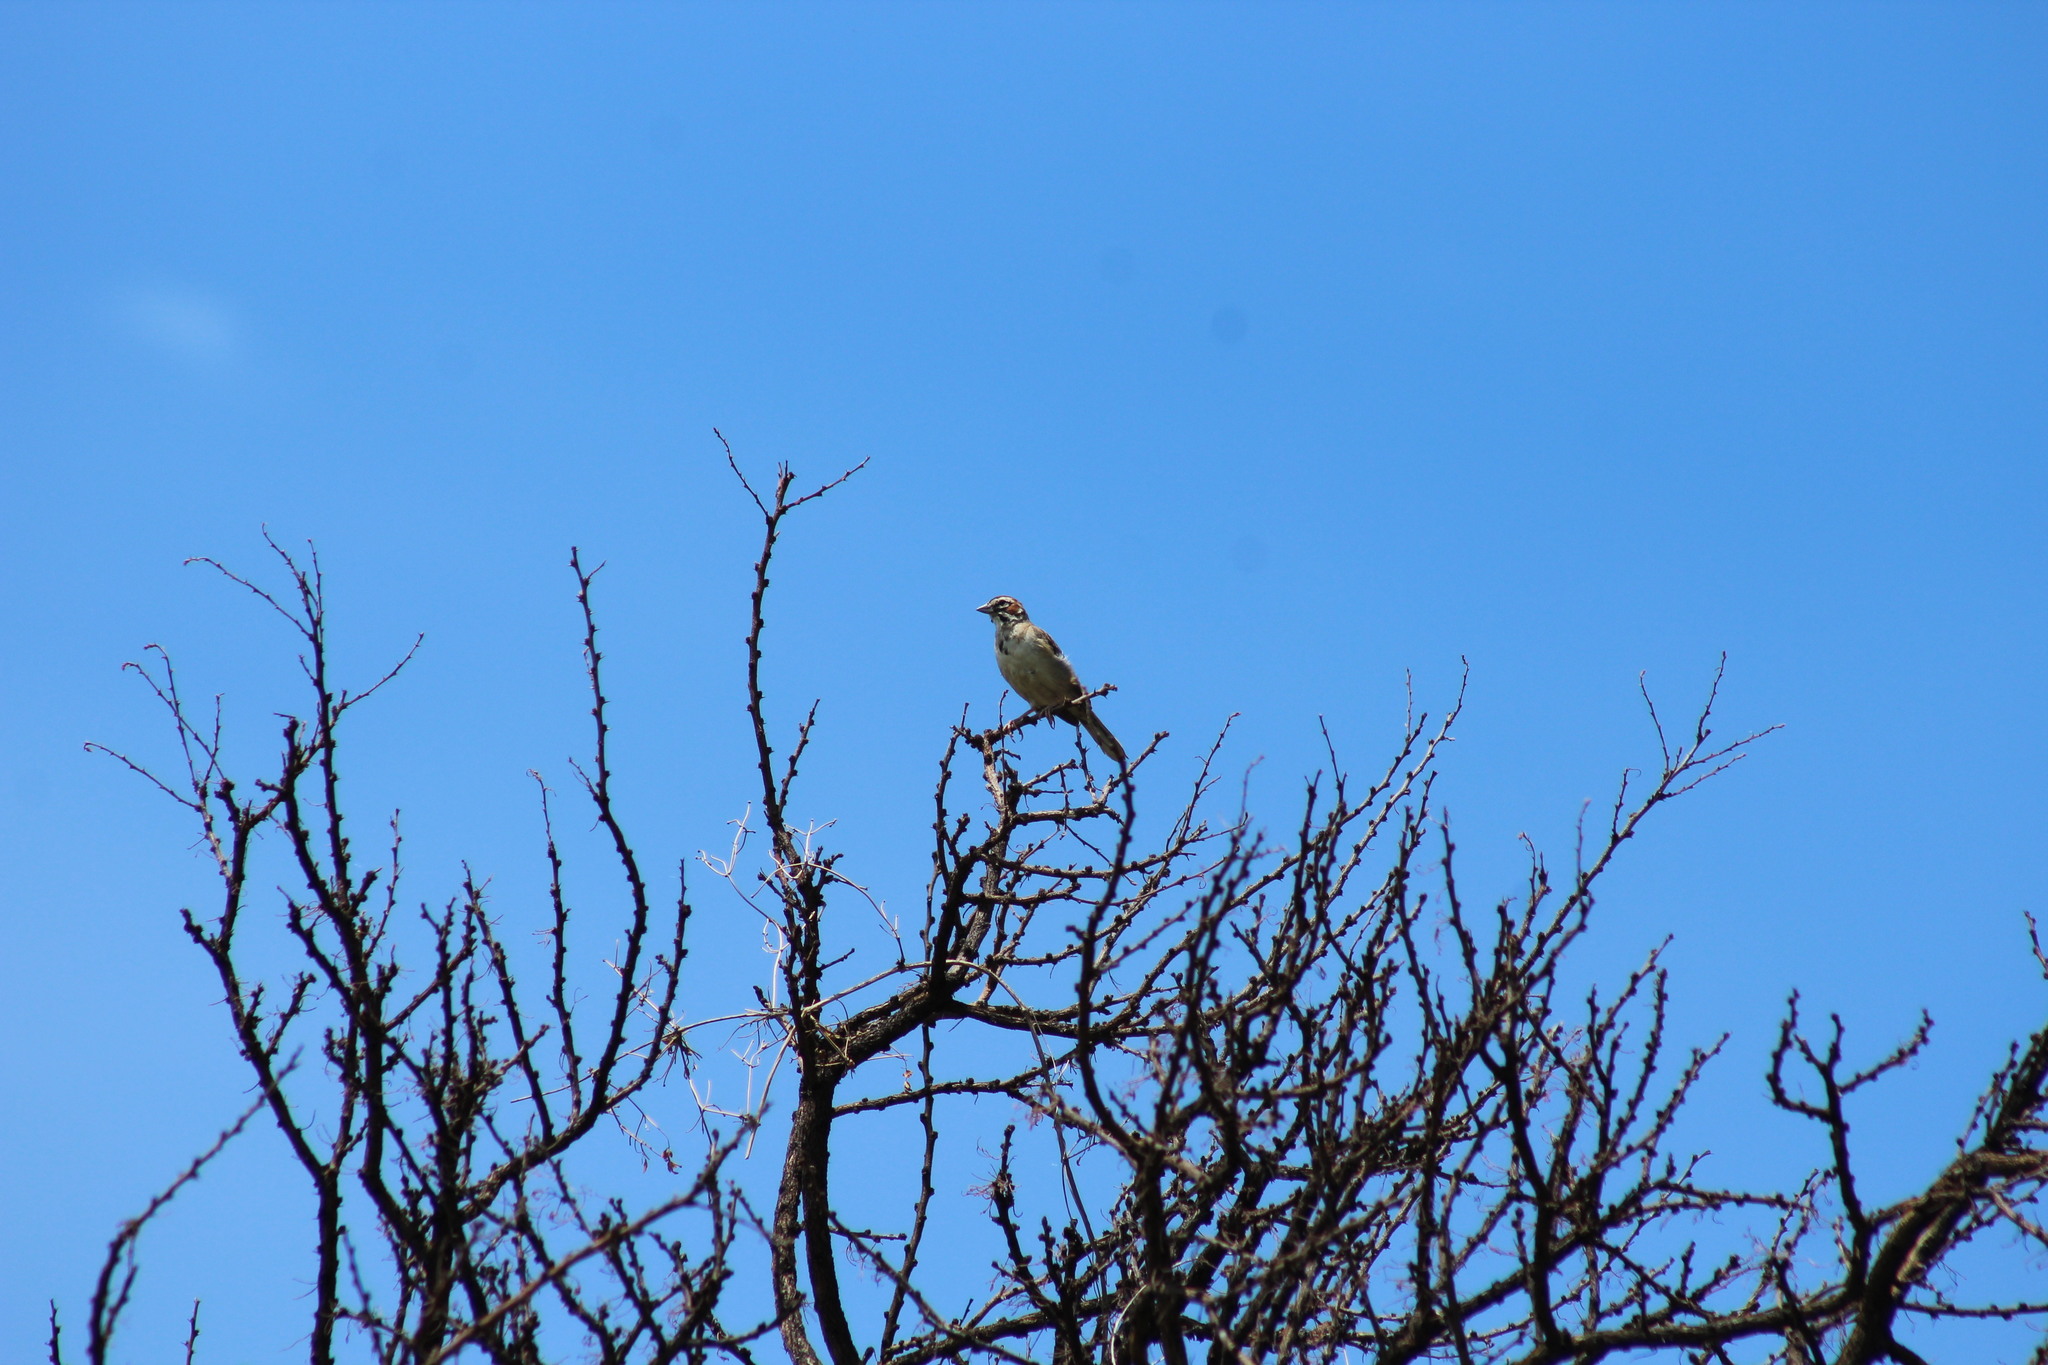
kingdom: Animalia
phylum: Chordata
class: Aves
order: Passeriformes
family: Passerellidae
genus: Chondestes
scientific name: Chondestes grammacus
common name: Lark sparrow
